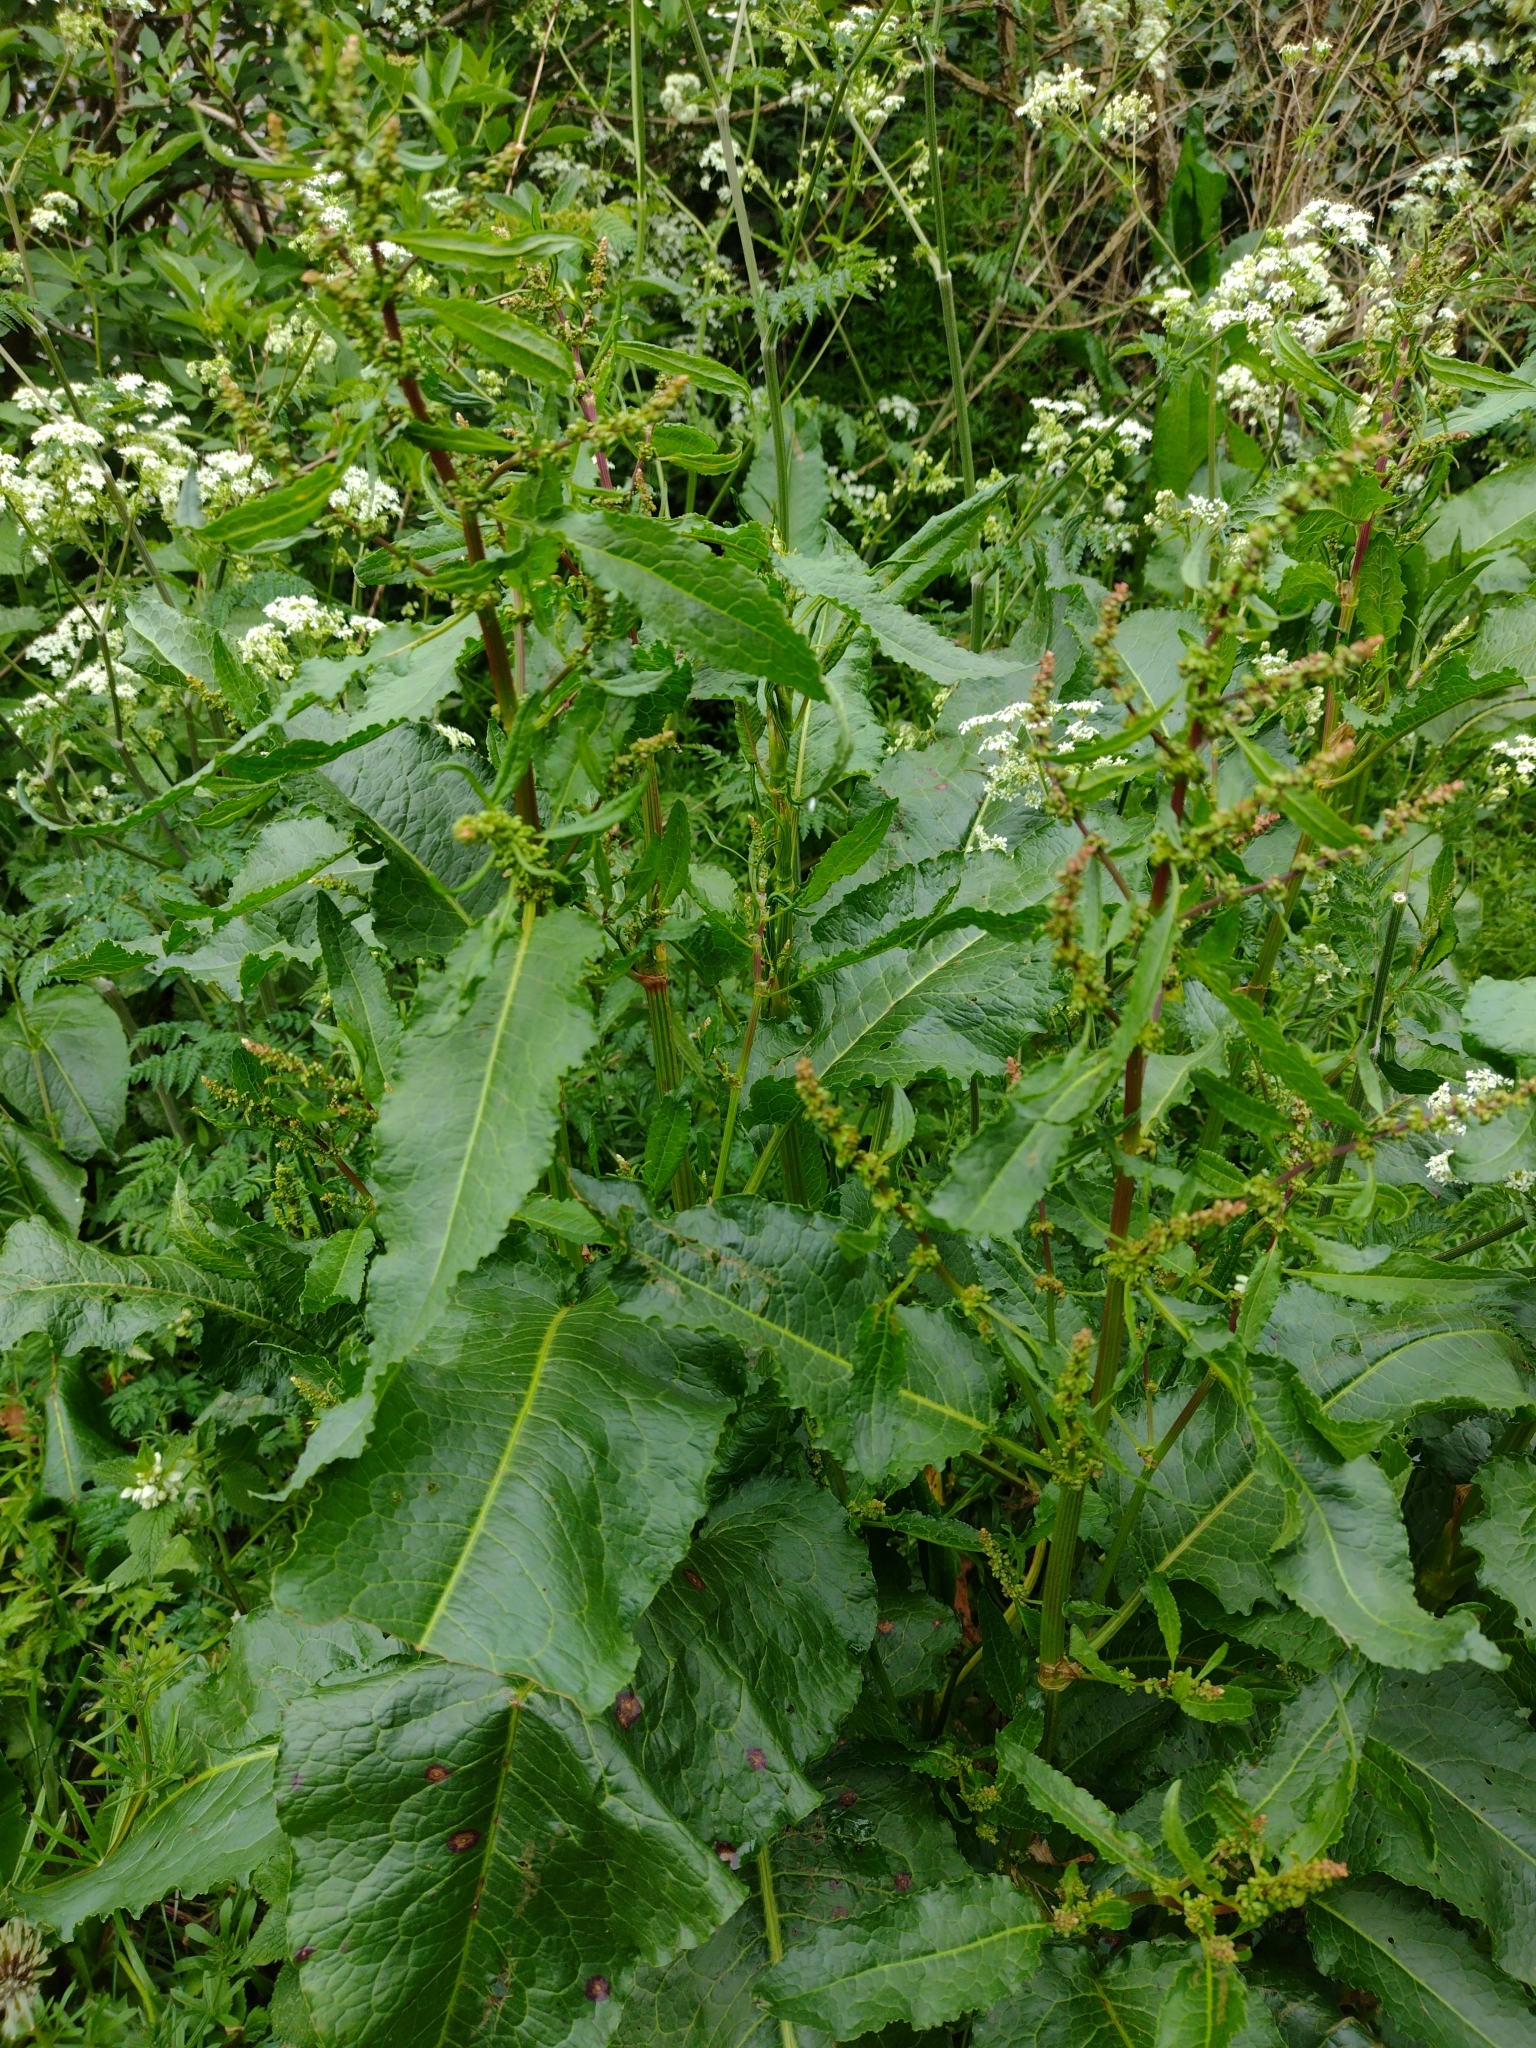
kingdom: Plantae
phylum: Tracheophyta
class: Magnoliopsida
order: Caryophyllales
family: Polygonaceae
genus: Rumex
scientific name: Rumex obtusifolius
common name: Bitter dock
